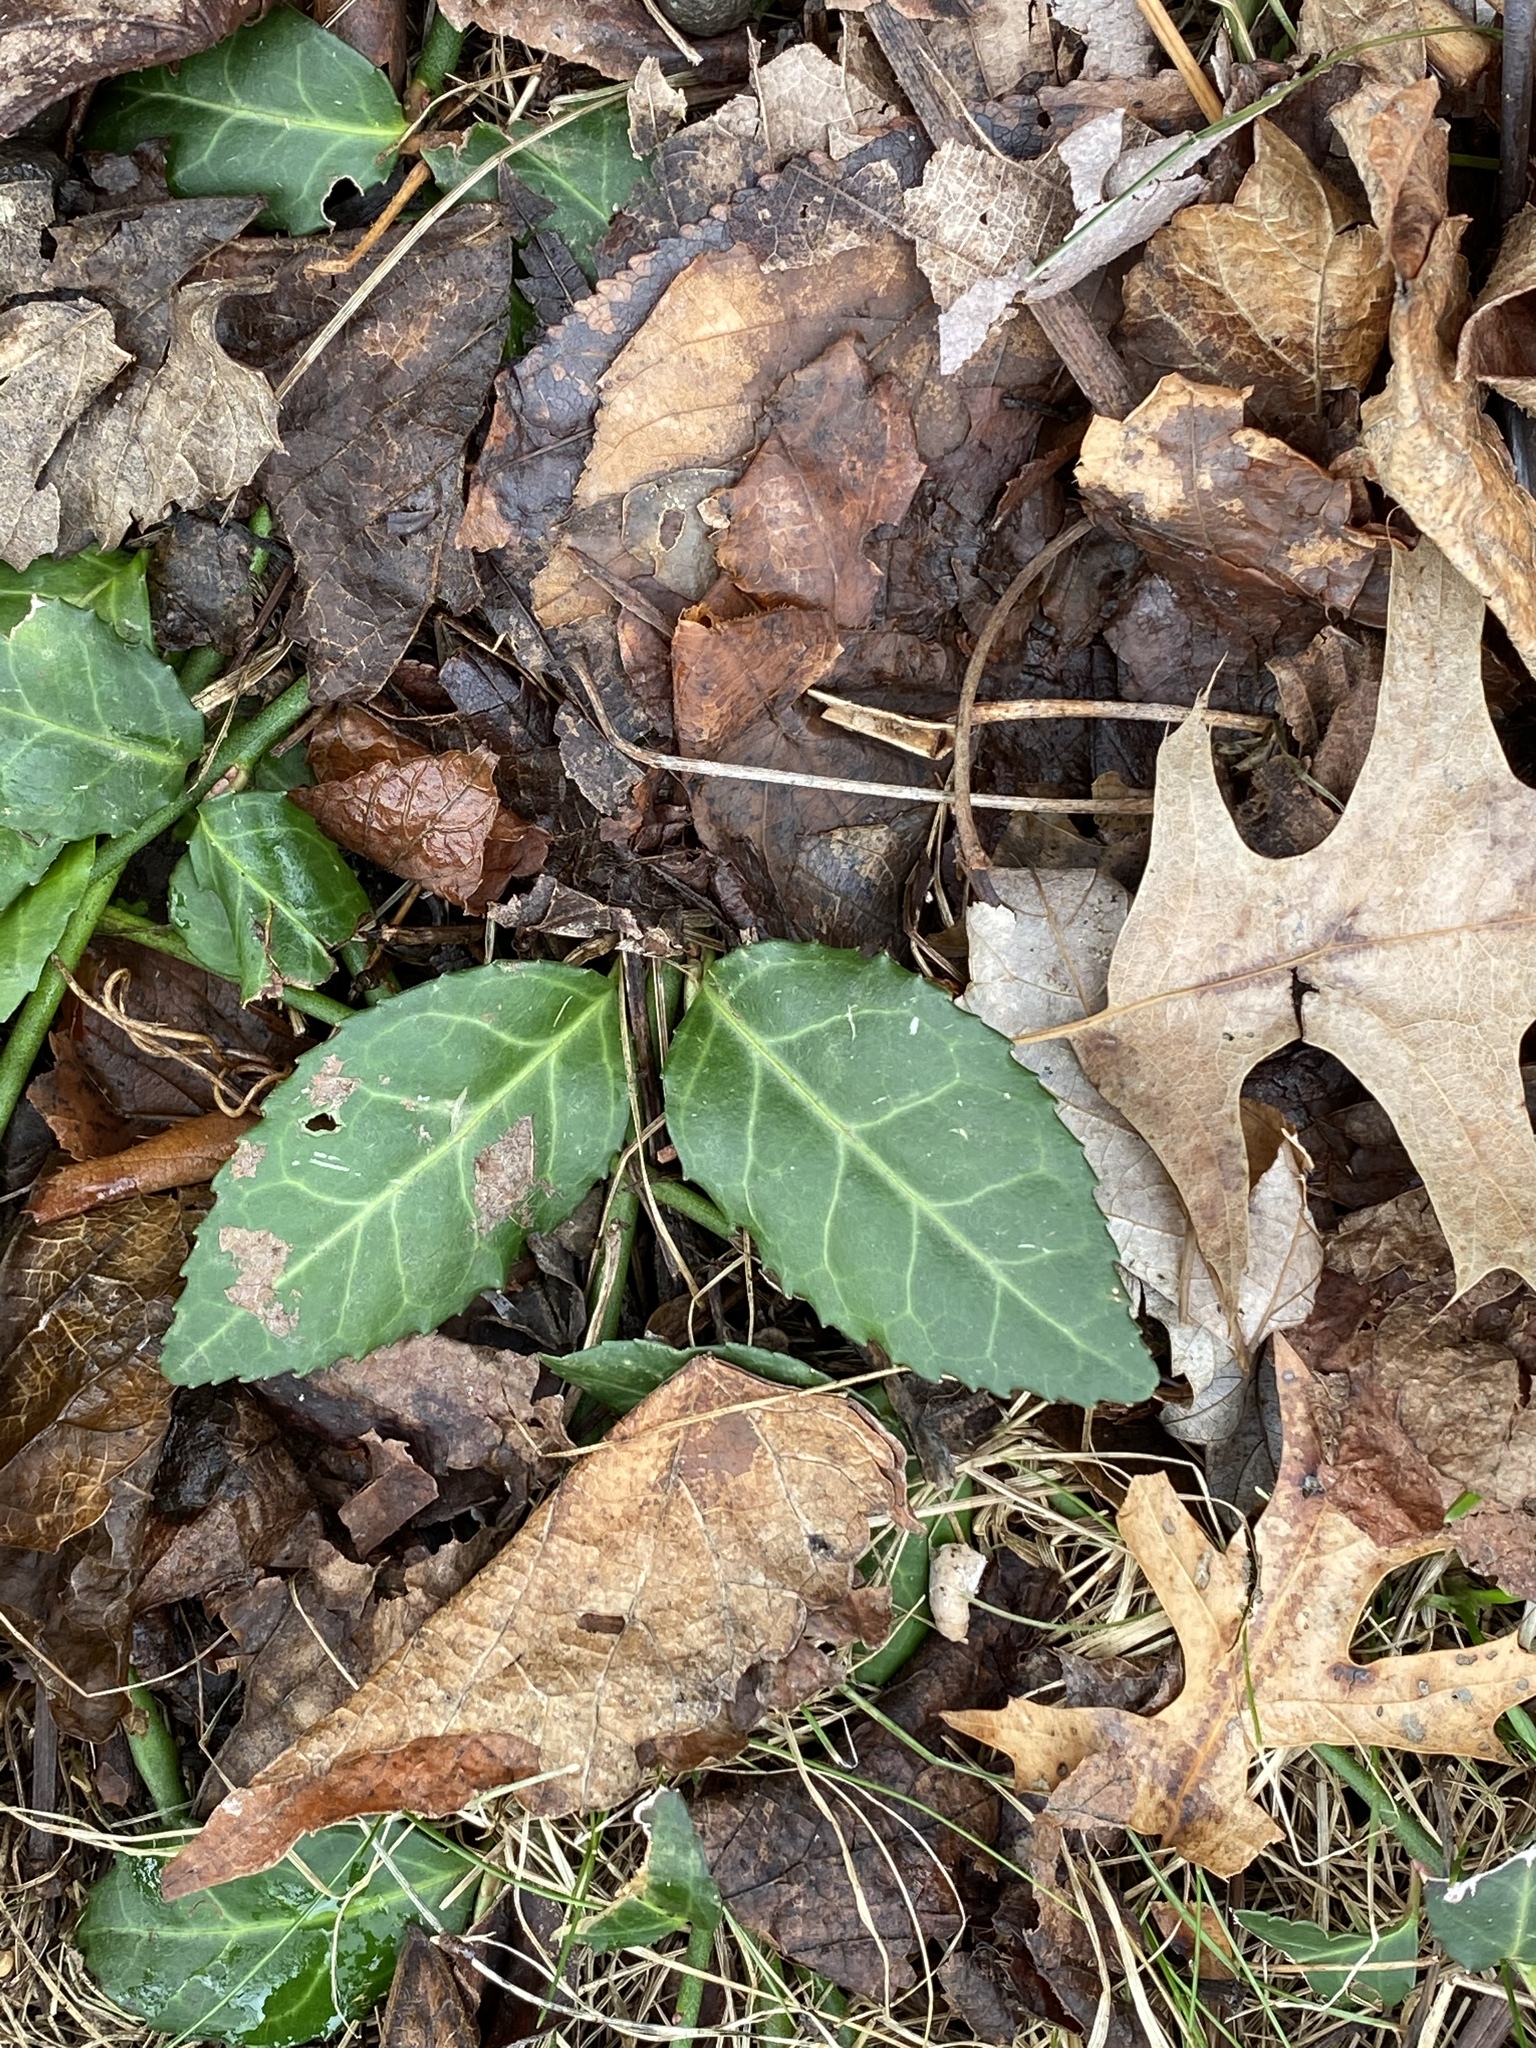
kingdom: Plantae
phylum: Tracheophyta
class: Magnoliopsida
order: Celastrales
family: Celastraceae
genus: Euonymus
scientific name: Euonymus fortunei
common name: Climbing euonymus
